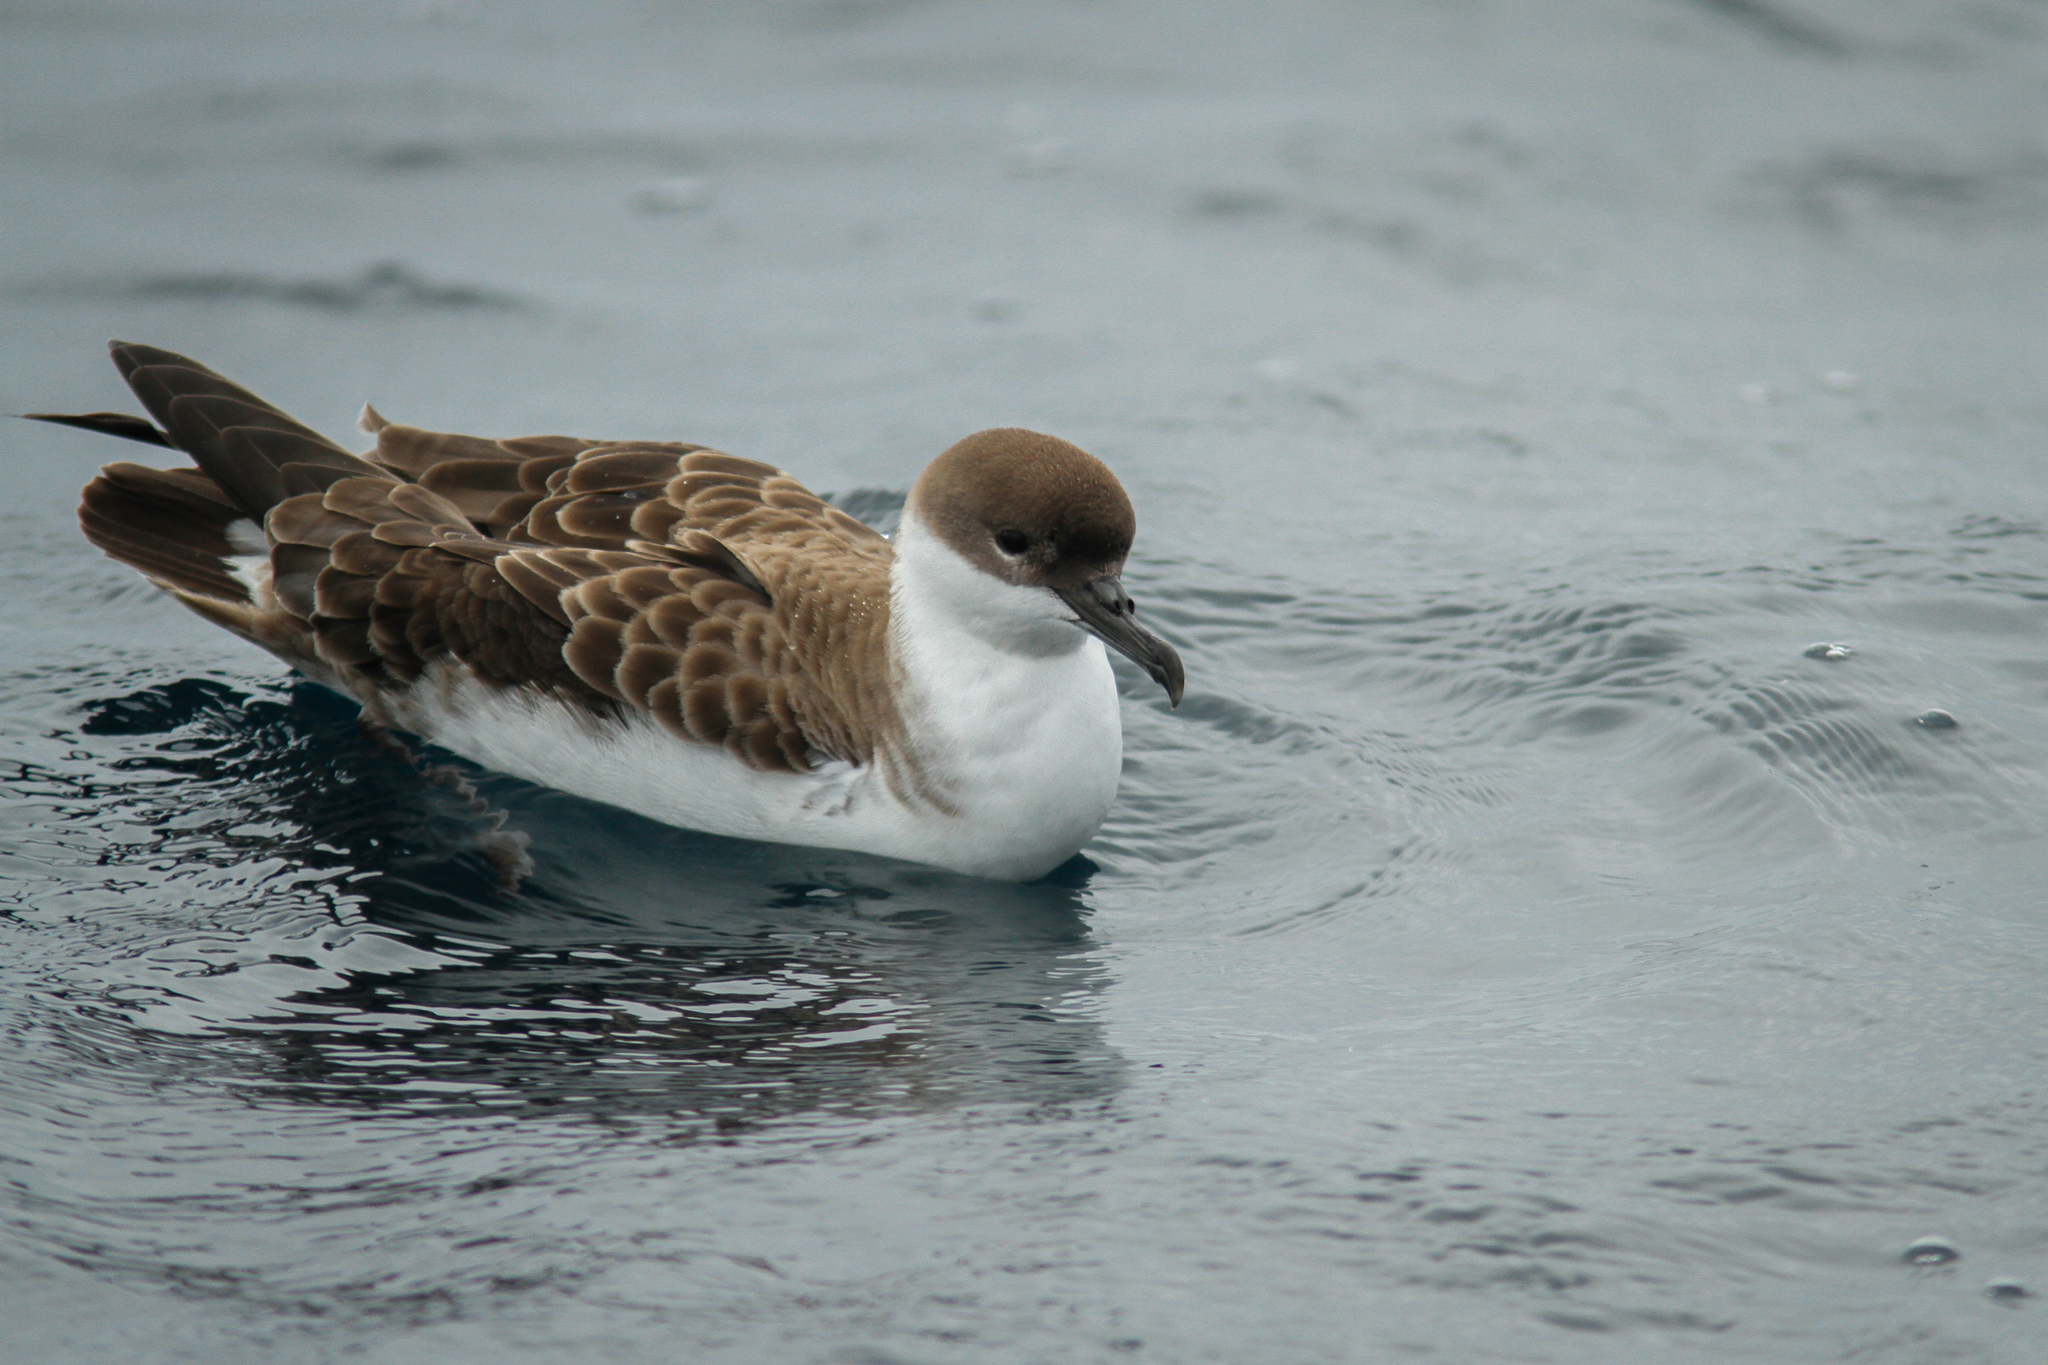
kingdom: Animalia
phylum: Chordata
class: Aves
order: Procellariiformes
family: Procellariidae
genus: Puffinus
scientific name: Puffinus gravis
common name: Great shearwater
